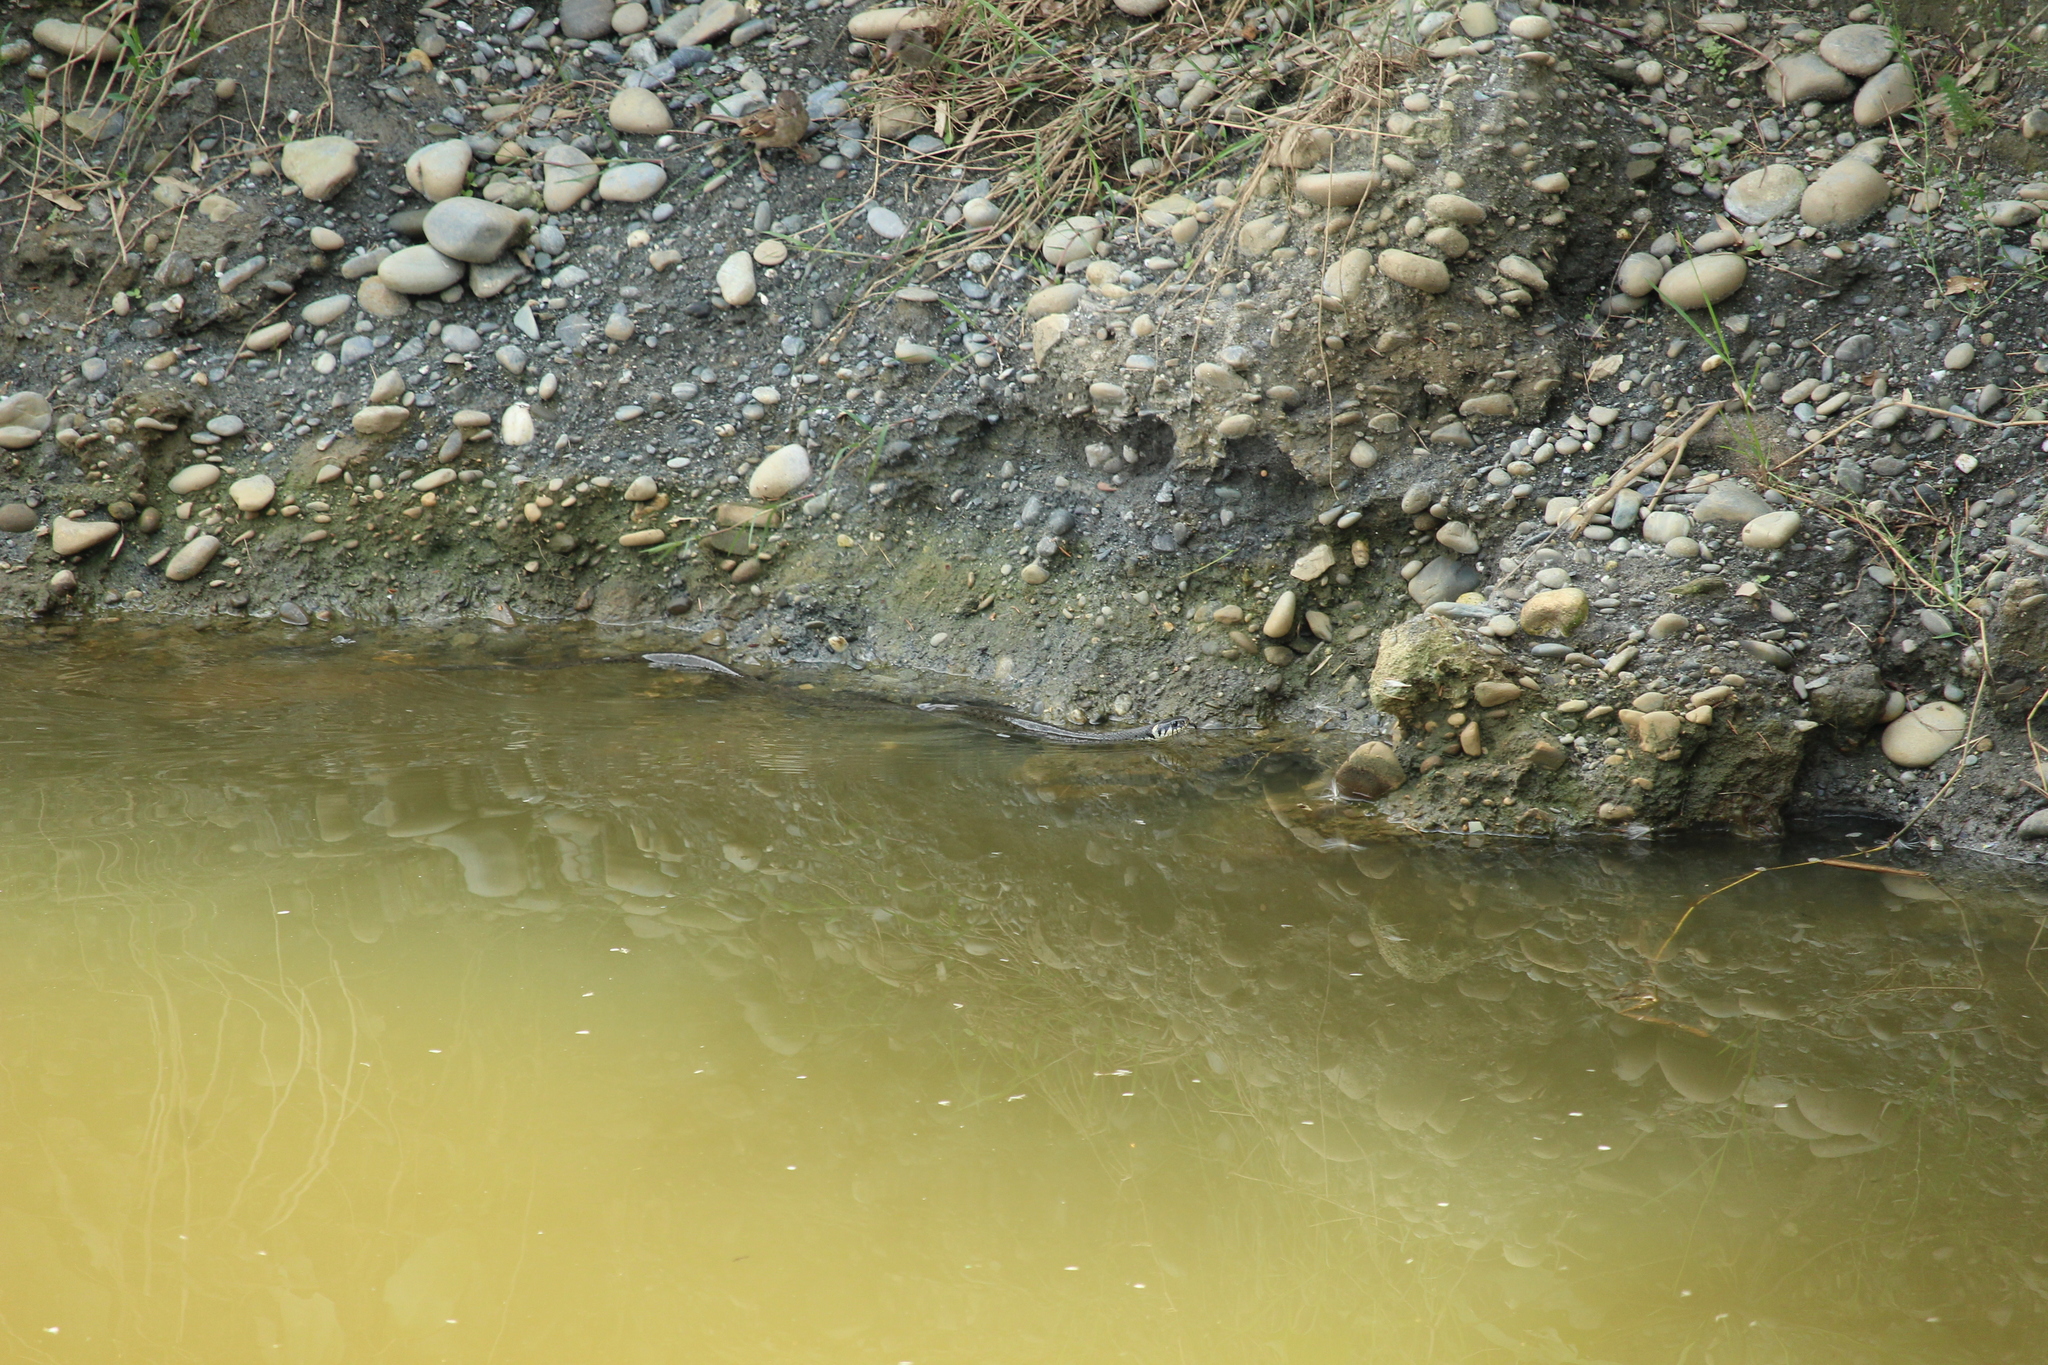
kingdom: Animalia
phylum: Chordata
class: Squamata
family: Colubridae
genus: Natrix
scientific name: Natrix natrix
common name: Grass snake
